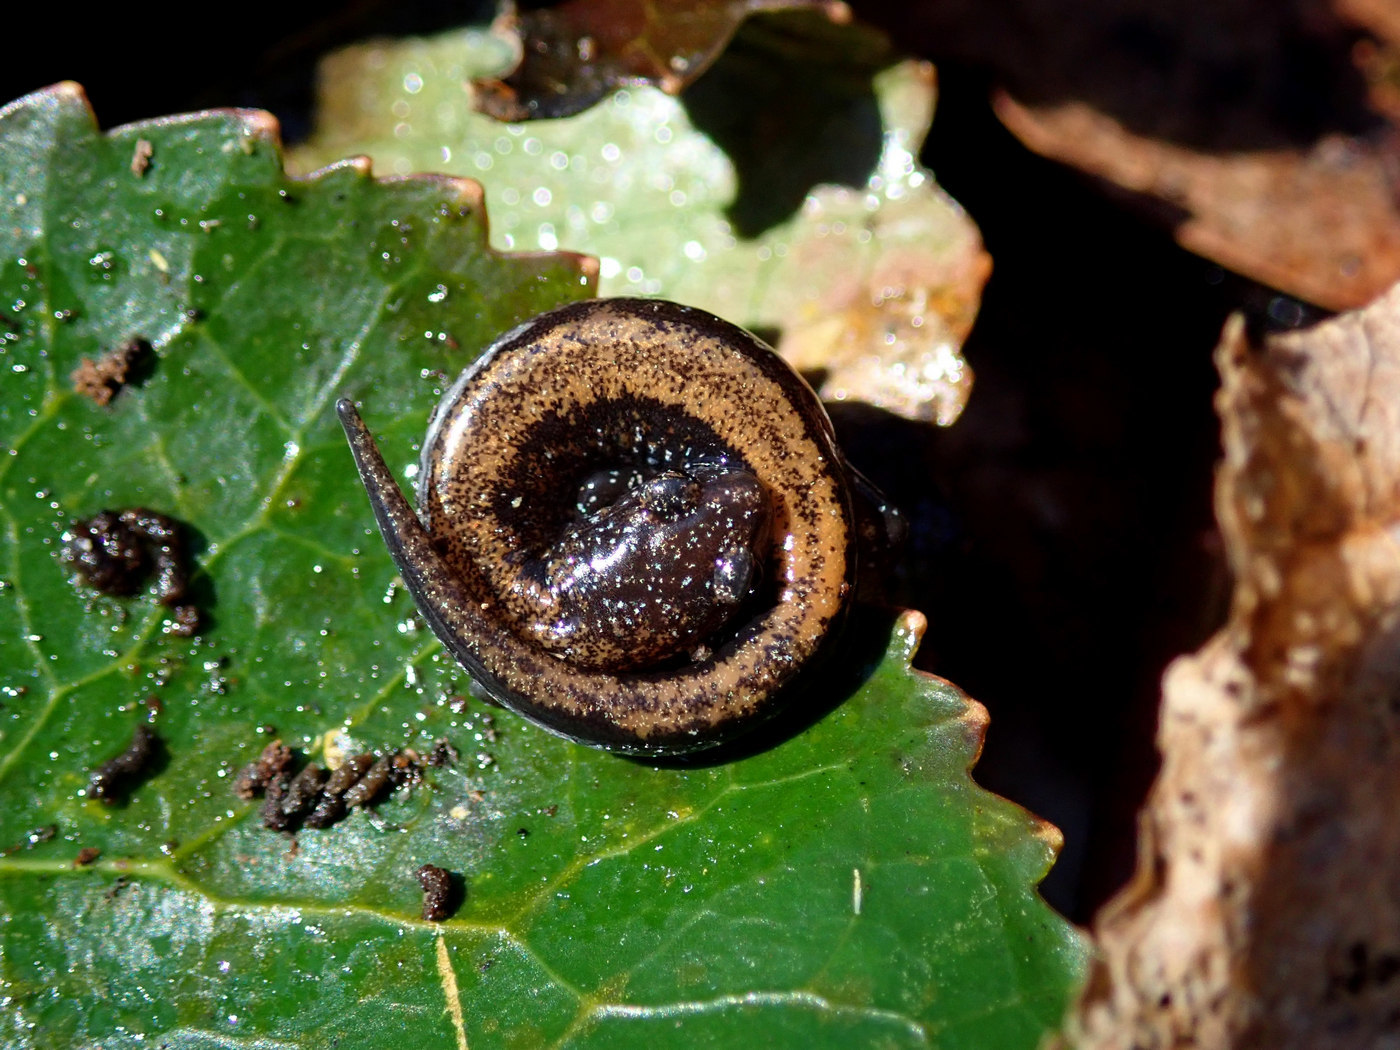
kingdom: Animalia
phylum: Chordata
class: Amphibia
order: Caudata
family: Plethodontidae
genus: Plethodon
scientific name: Plethodon cinereus
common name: Redback salamander
